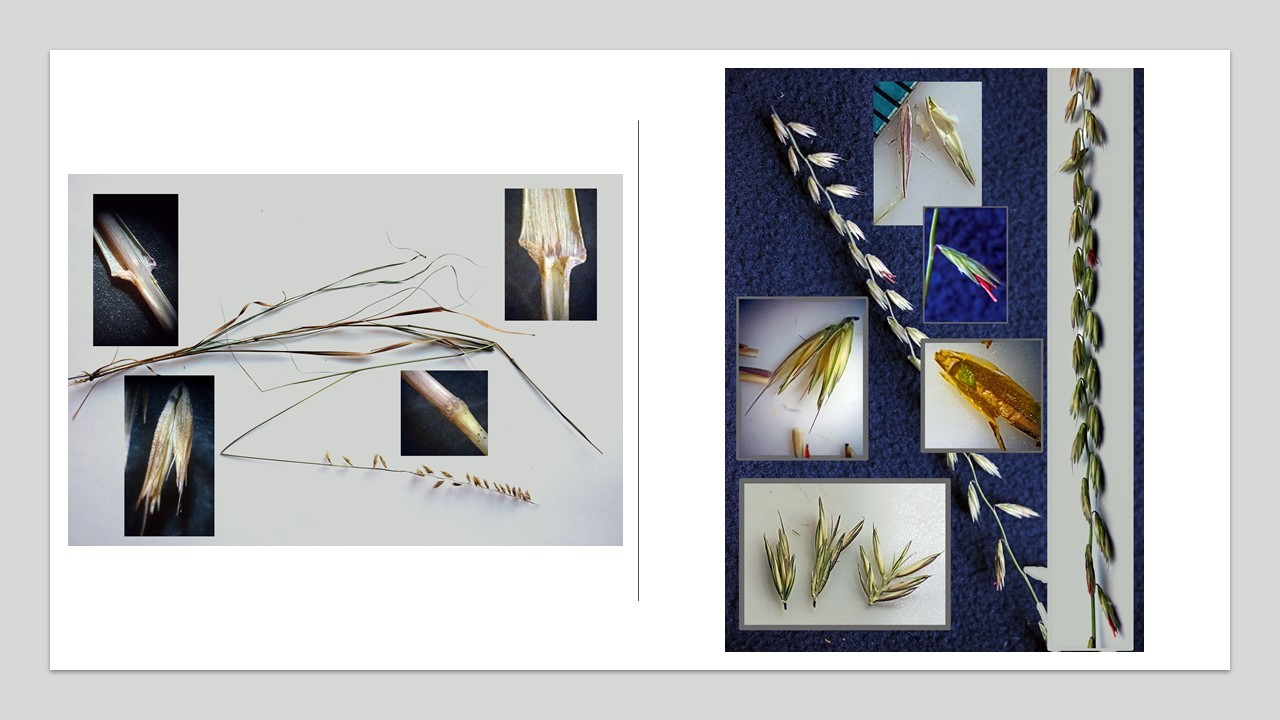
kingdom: Plantae
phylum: Tracheophyta
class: Liliopsida
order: Poales
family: Poaceae
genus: Bouteloua
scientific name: Bouteloua curtipendula
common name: Side-oats grama
